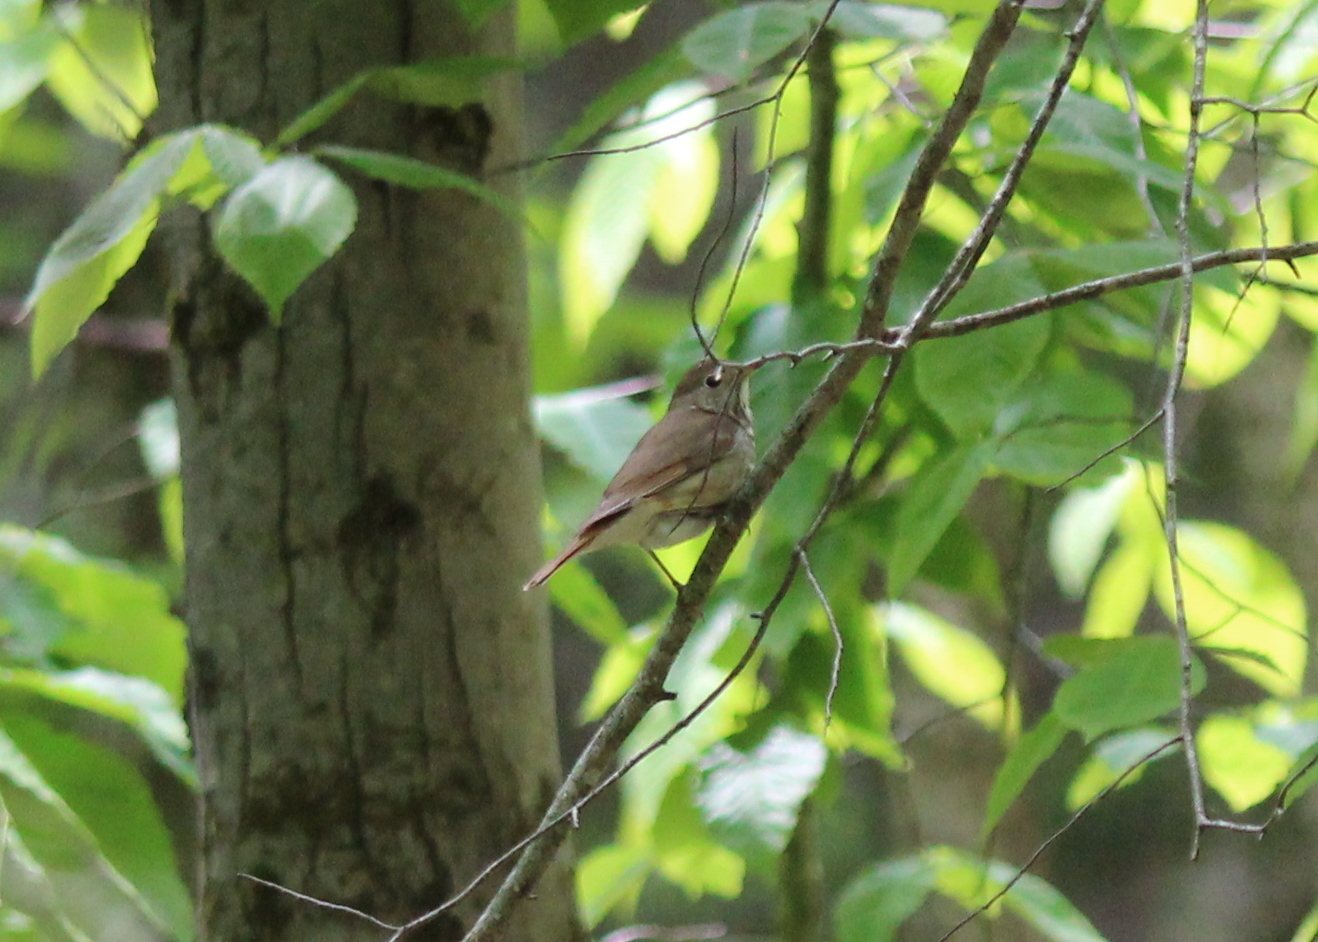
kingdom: Animalia
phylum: Chordata
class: Aves
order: Passeriformes
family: Turdidae
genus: Catharus
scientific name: Catharus guttatus
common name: Hermit thrush
